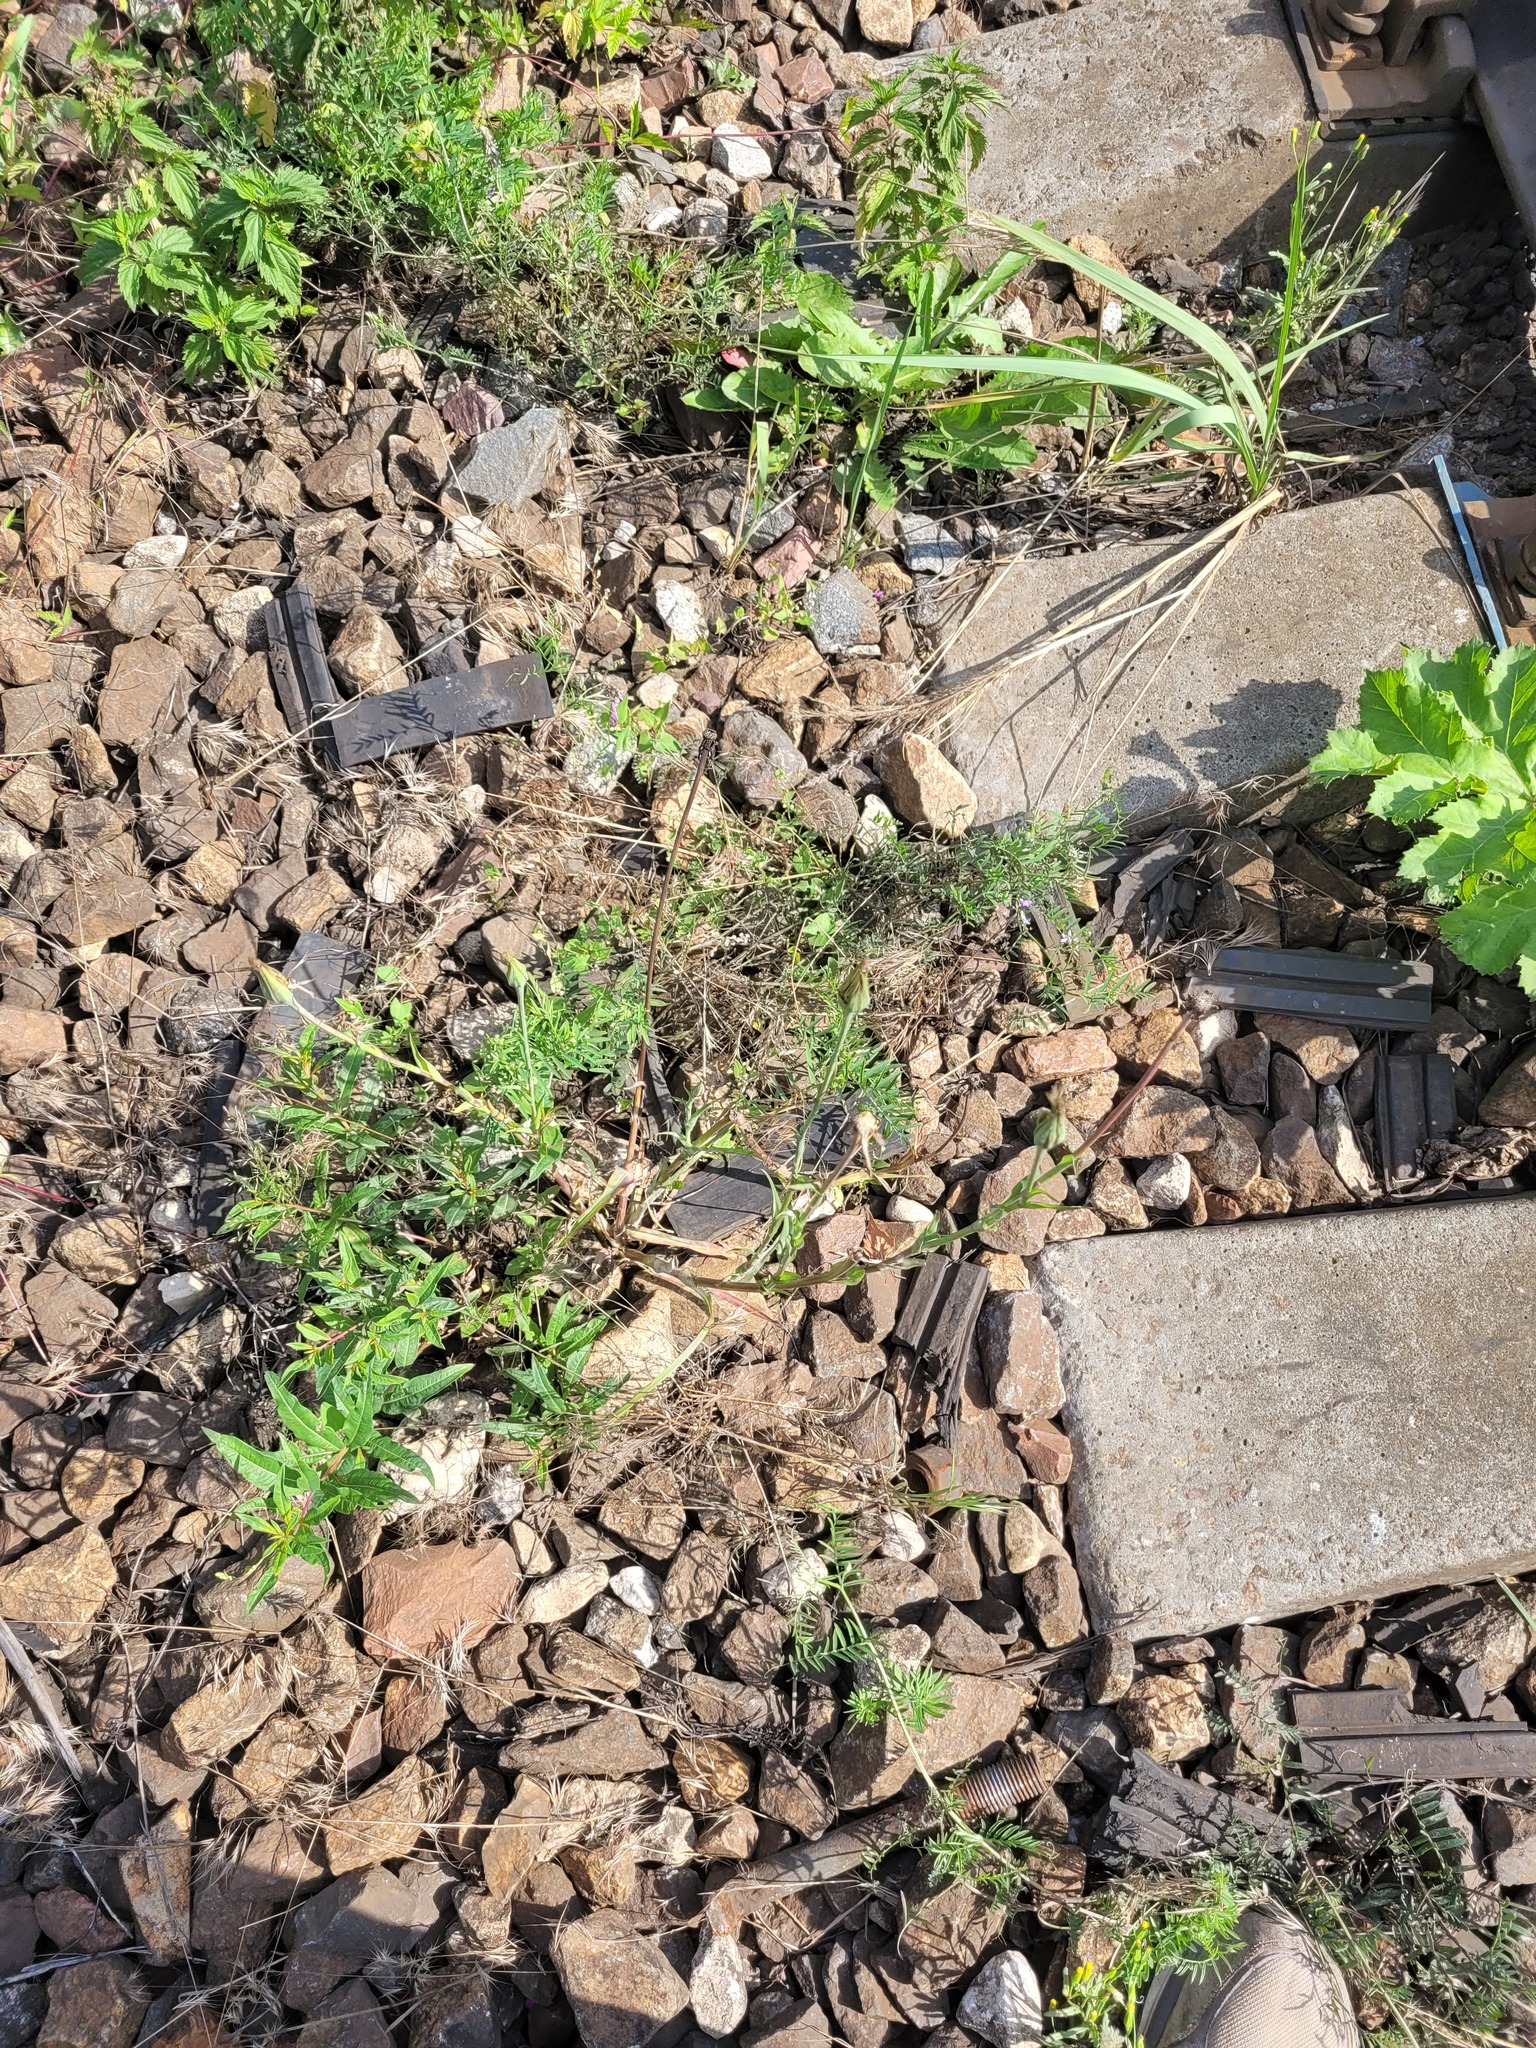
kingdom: Plantae
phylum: Tracheophyta
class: Magnoliopsida
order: Asterales
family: Asteraceae
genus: Tragopogon
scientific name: Tragopogon dubius
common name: Yellow salsify
